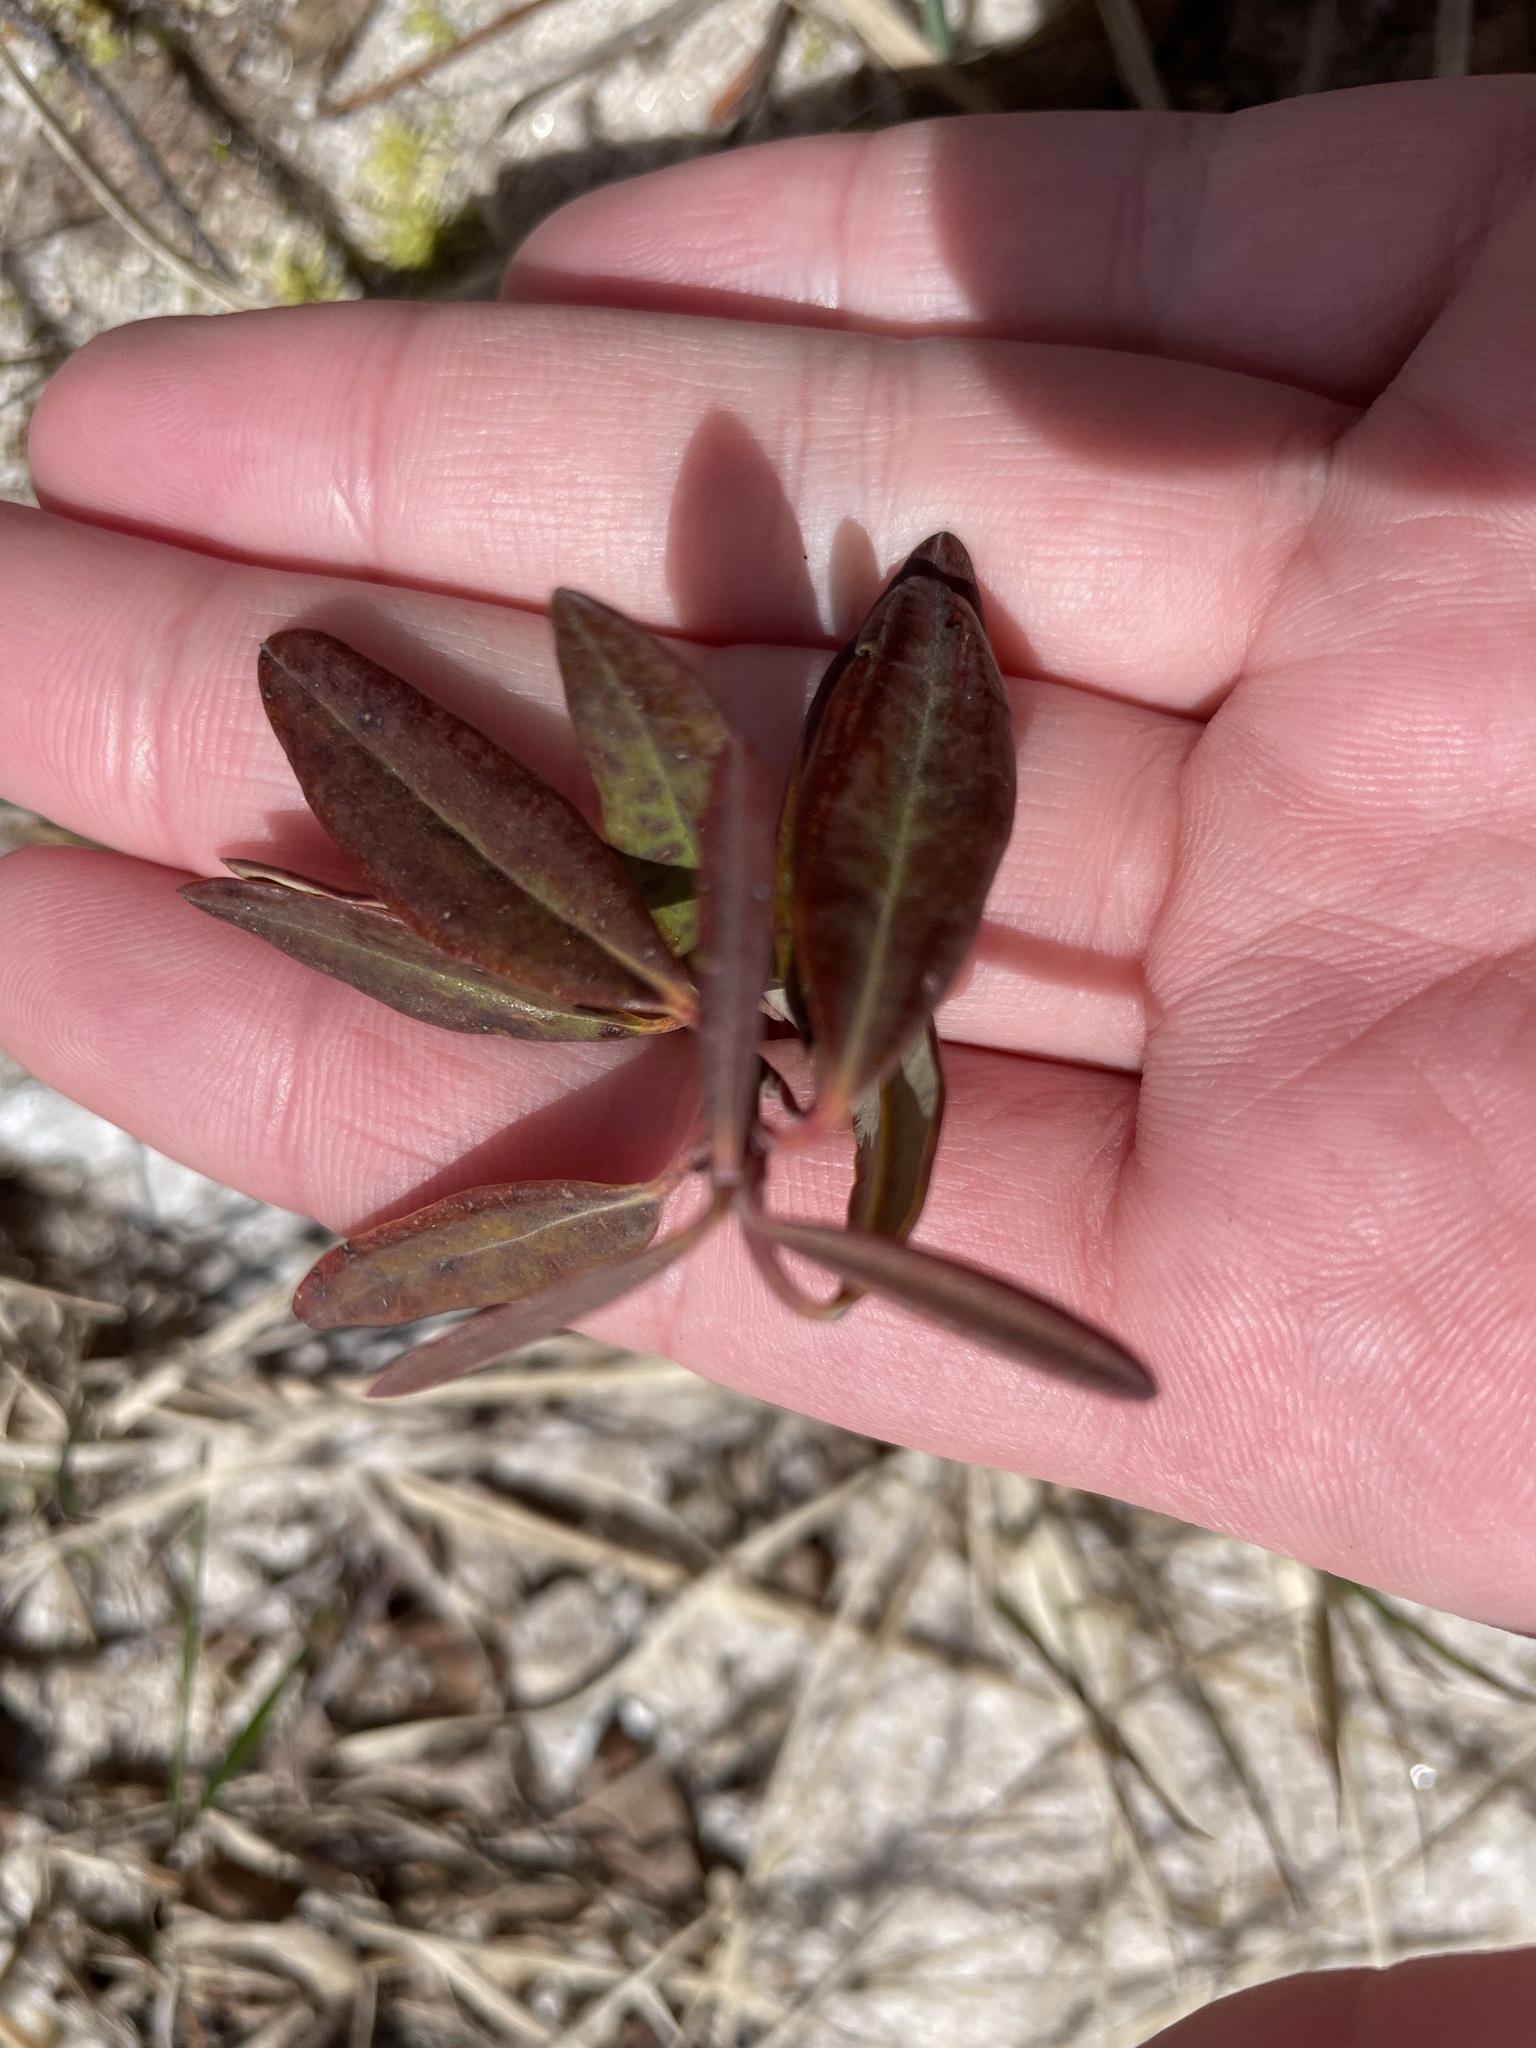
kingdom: Plantae
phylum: Tracheophyta
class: Magnoliopsida
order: Ericales
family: Ericaceae
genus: Kalmia
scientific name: Kalmia angustifolia
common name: Sheep-laurel
